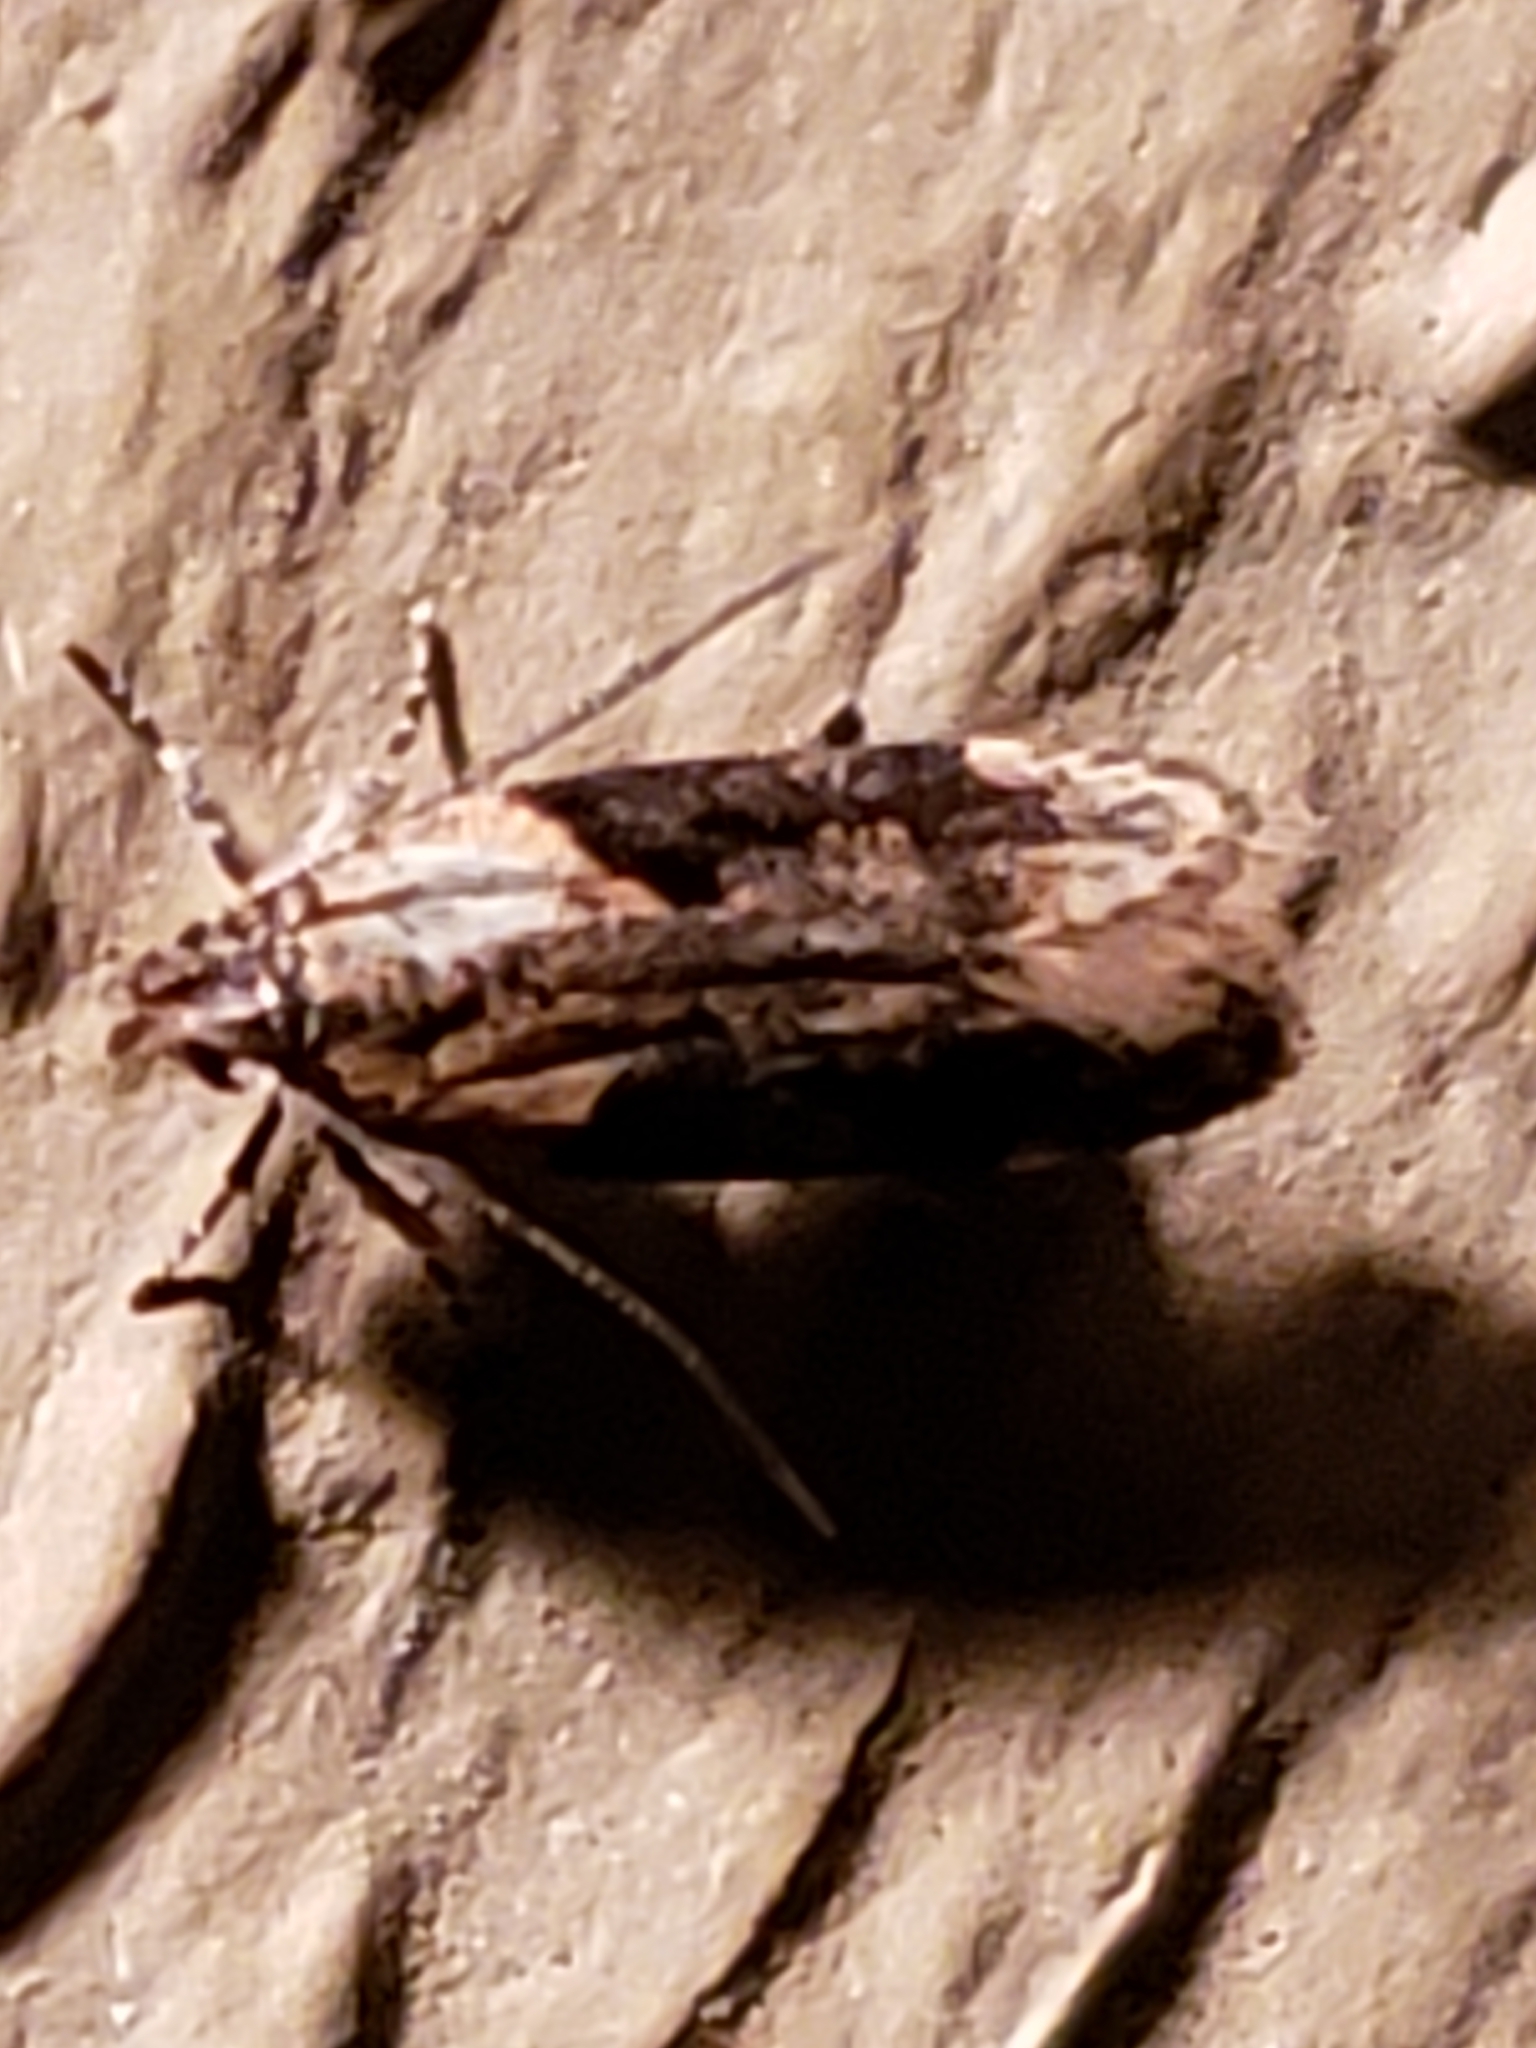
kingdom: Animalia
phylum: Arthropoda
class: Insecta
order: Lepidoptera
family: Gelechiidae
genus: Chionodes
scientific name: Chionodes mediofuscella
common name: Black-smudged chionodes moth
